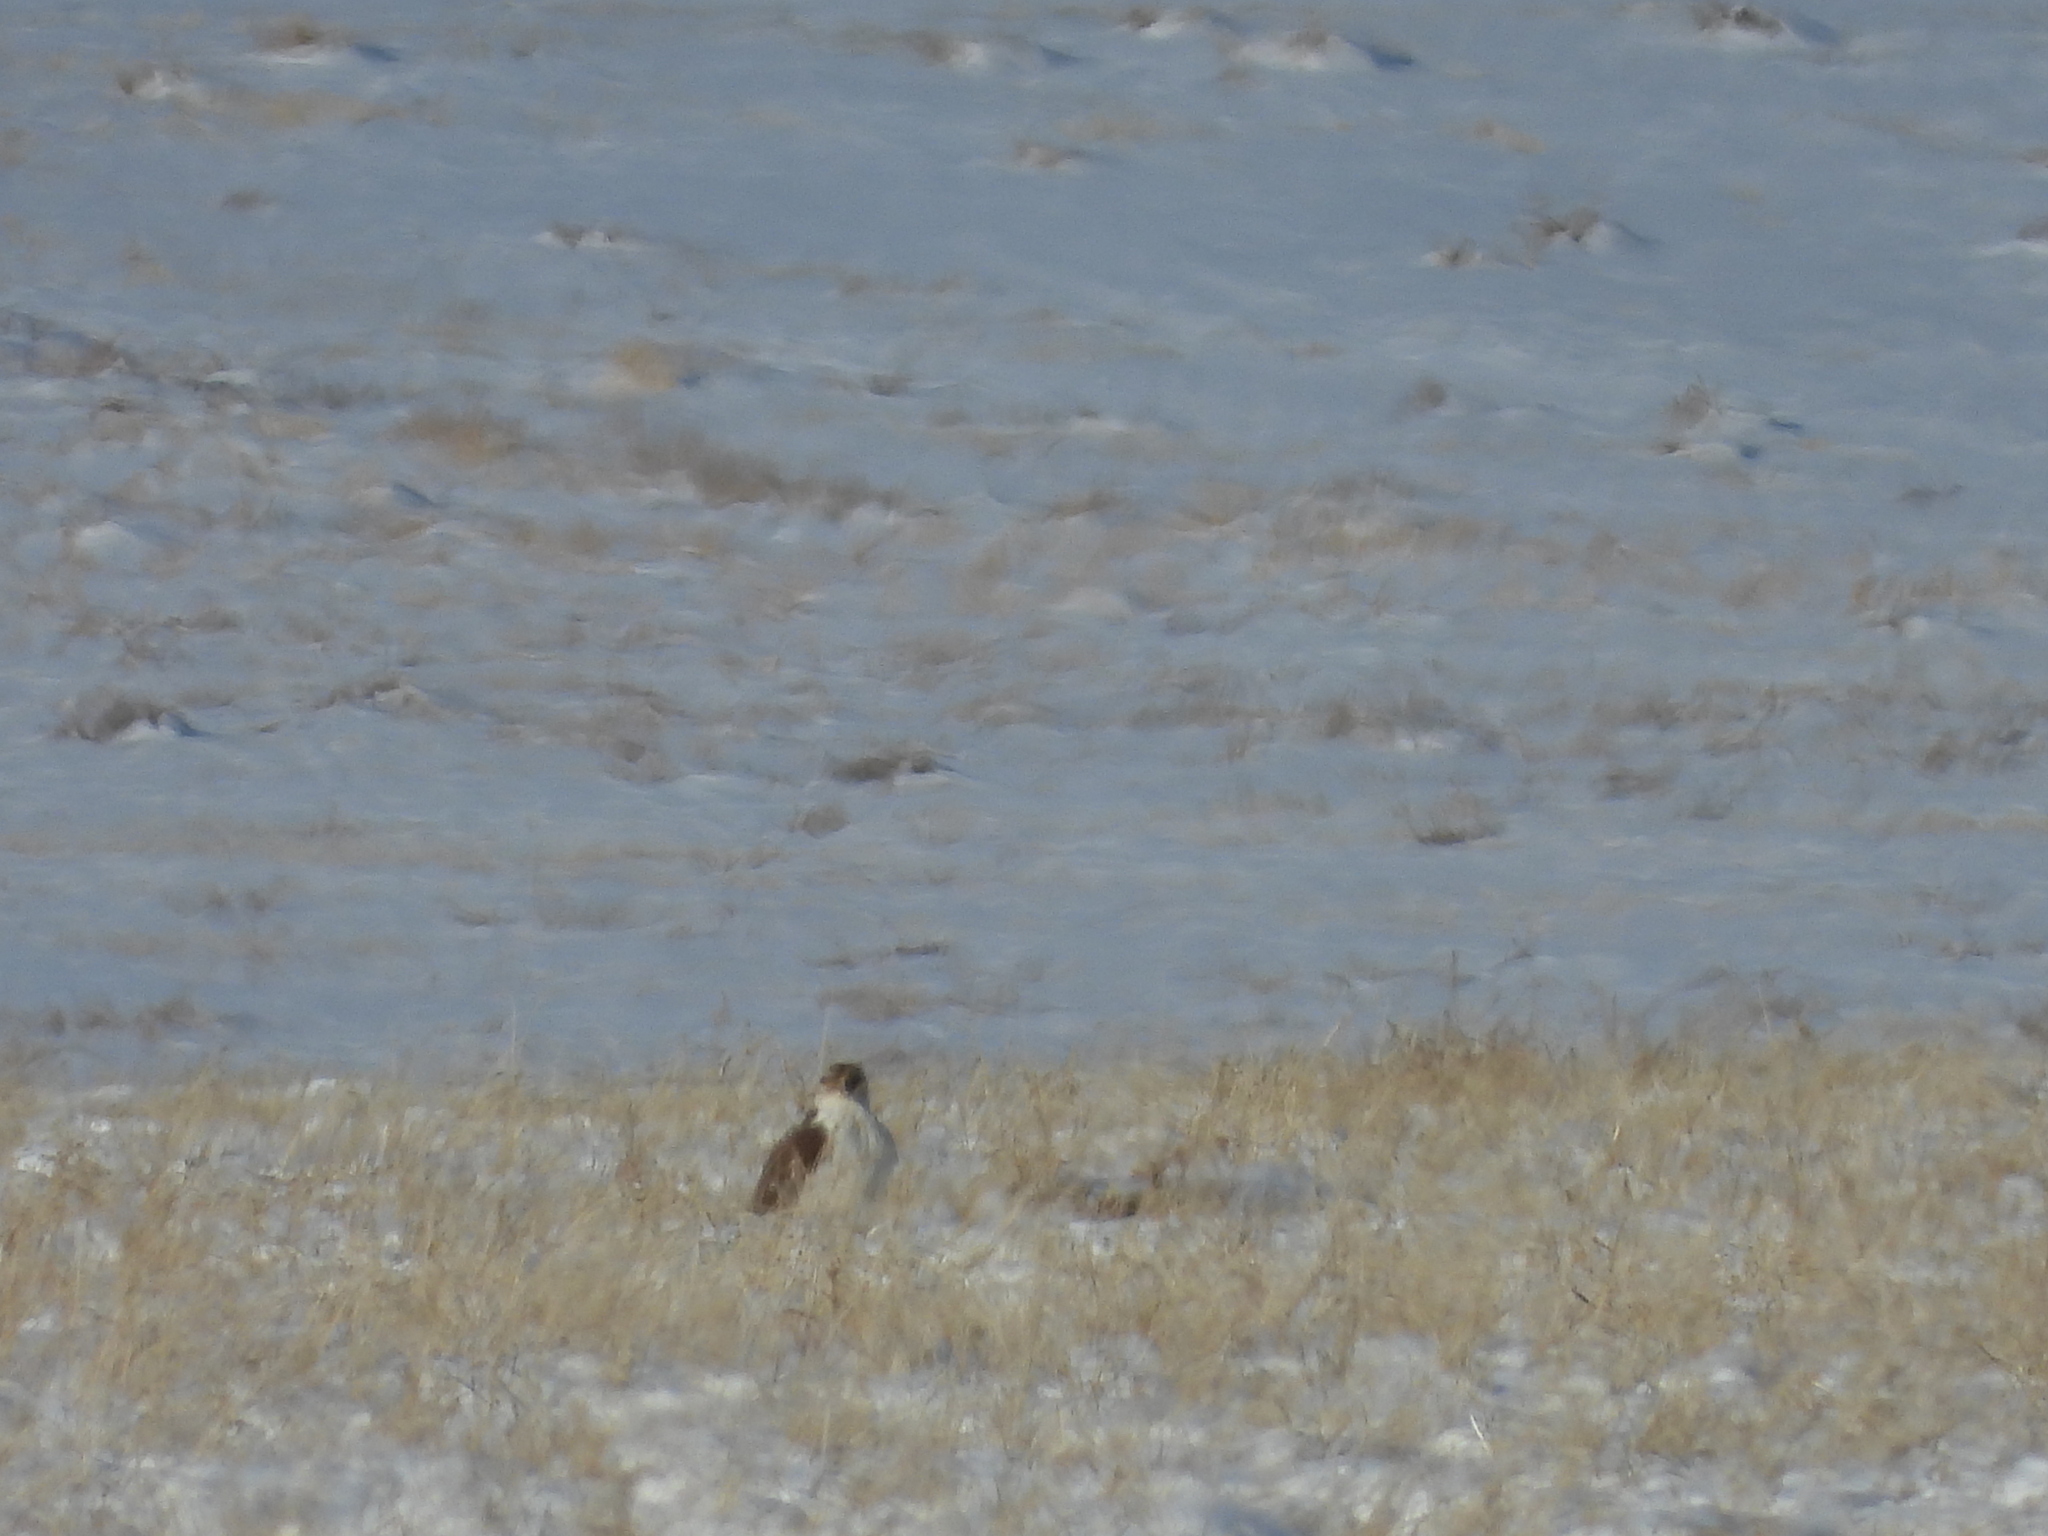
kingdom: Animalia
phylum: Chordata
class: Aves
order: Accipitriformes
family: Accipitridae
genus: Buteo
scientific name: Buteo regalis
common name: Ferruginous hawk
